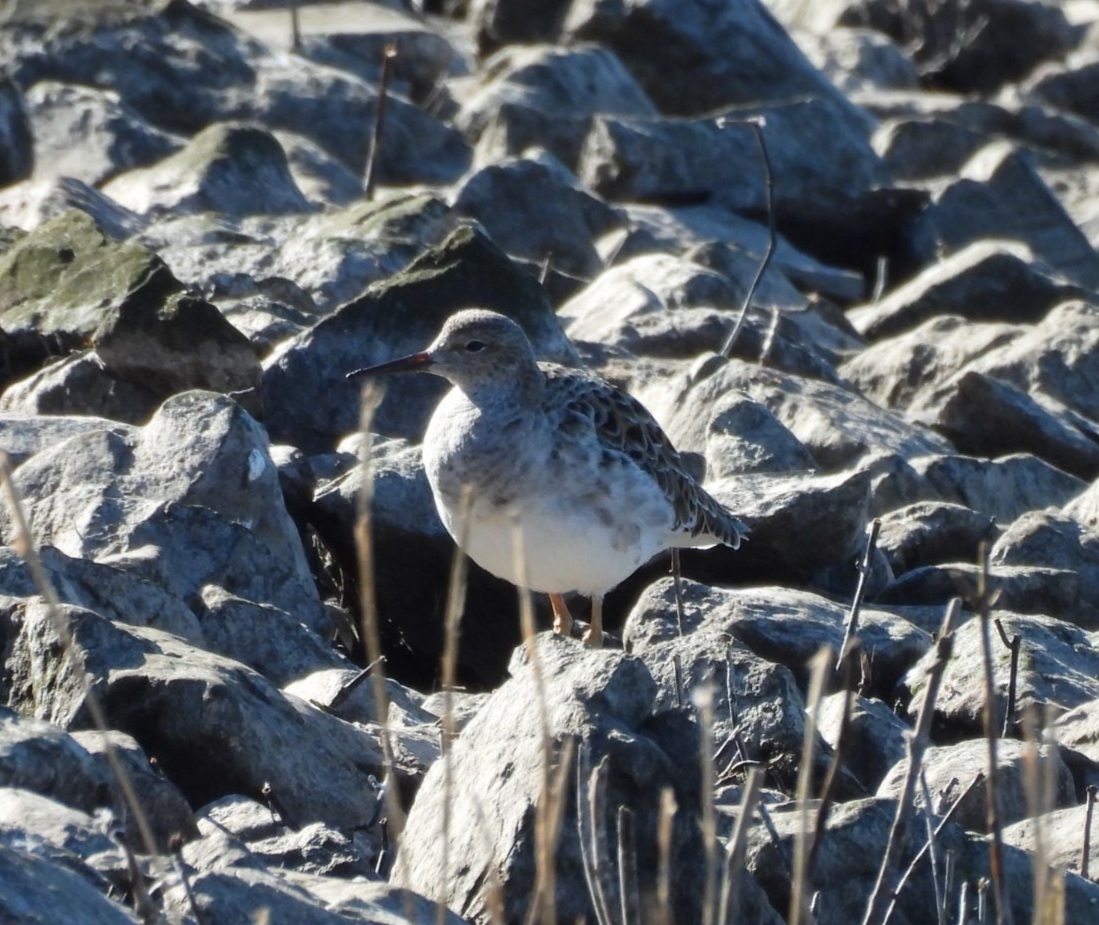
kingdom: Animalia
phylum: Chordata
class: Aves
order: Charadriiformes
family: Scolopacidae
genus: Calidris
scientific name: Calidris pugnax
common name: Ruff
